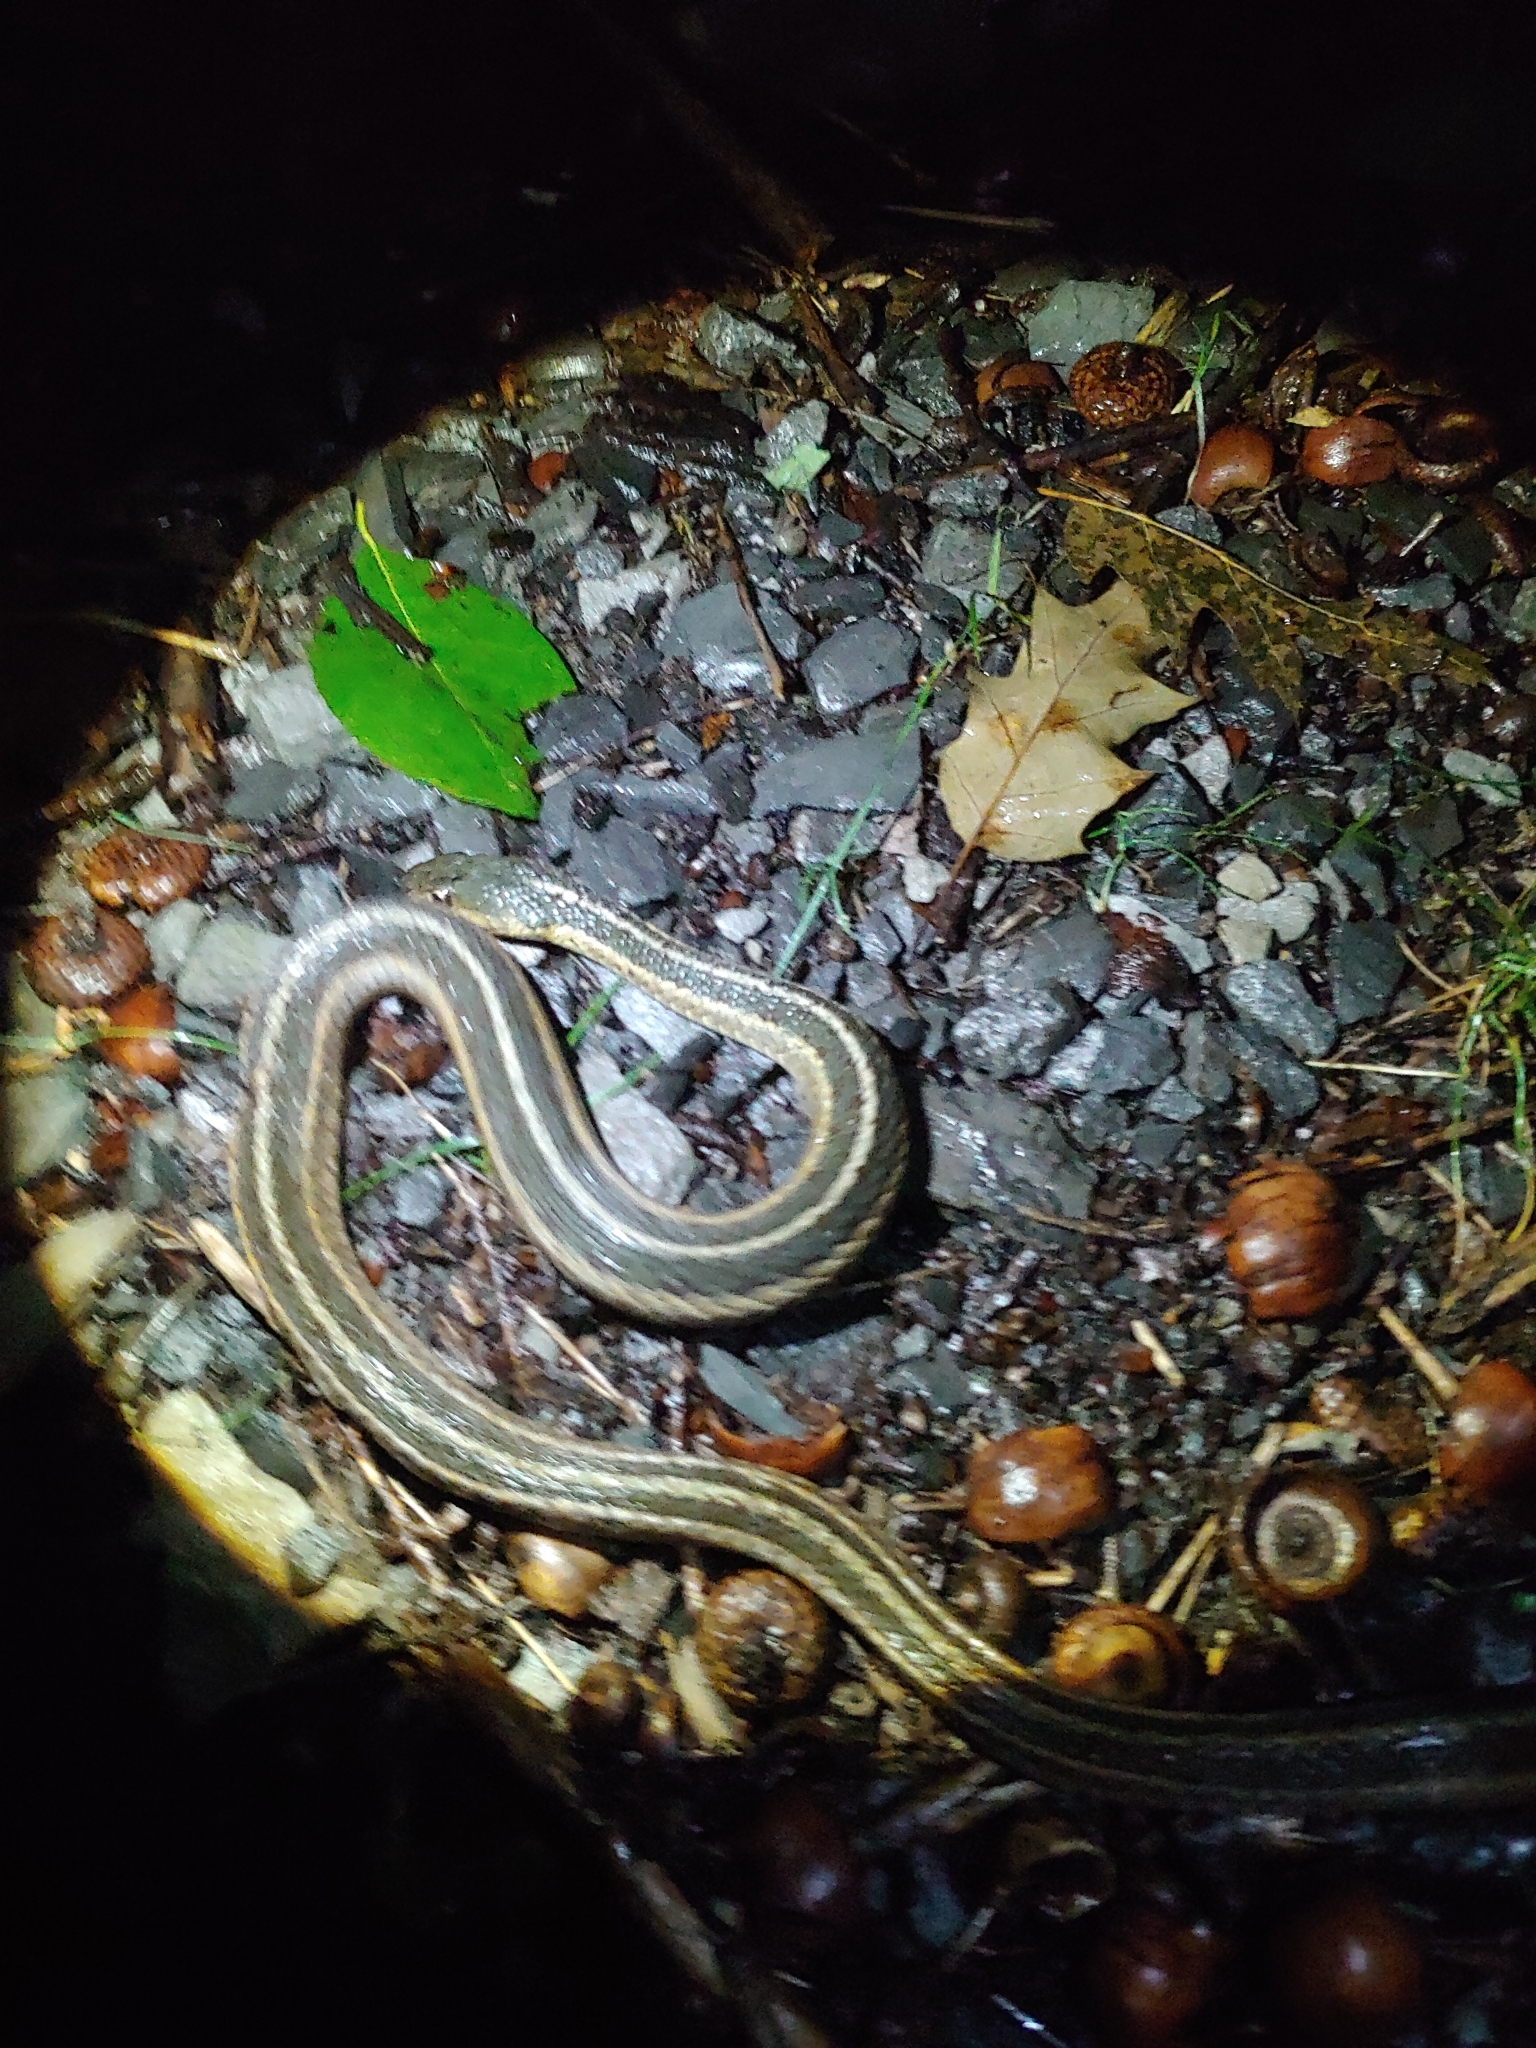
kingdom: Animalia
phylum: Chordata
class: Squamata
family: Colubridae
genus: Thamnophis
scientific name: Thamnophis sirtalis
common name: Common garter snake
